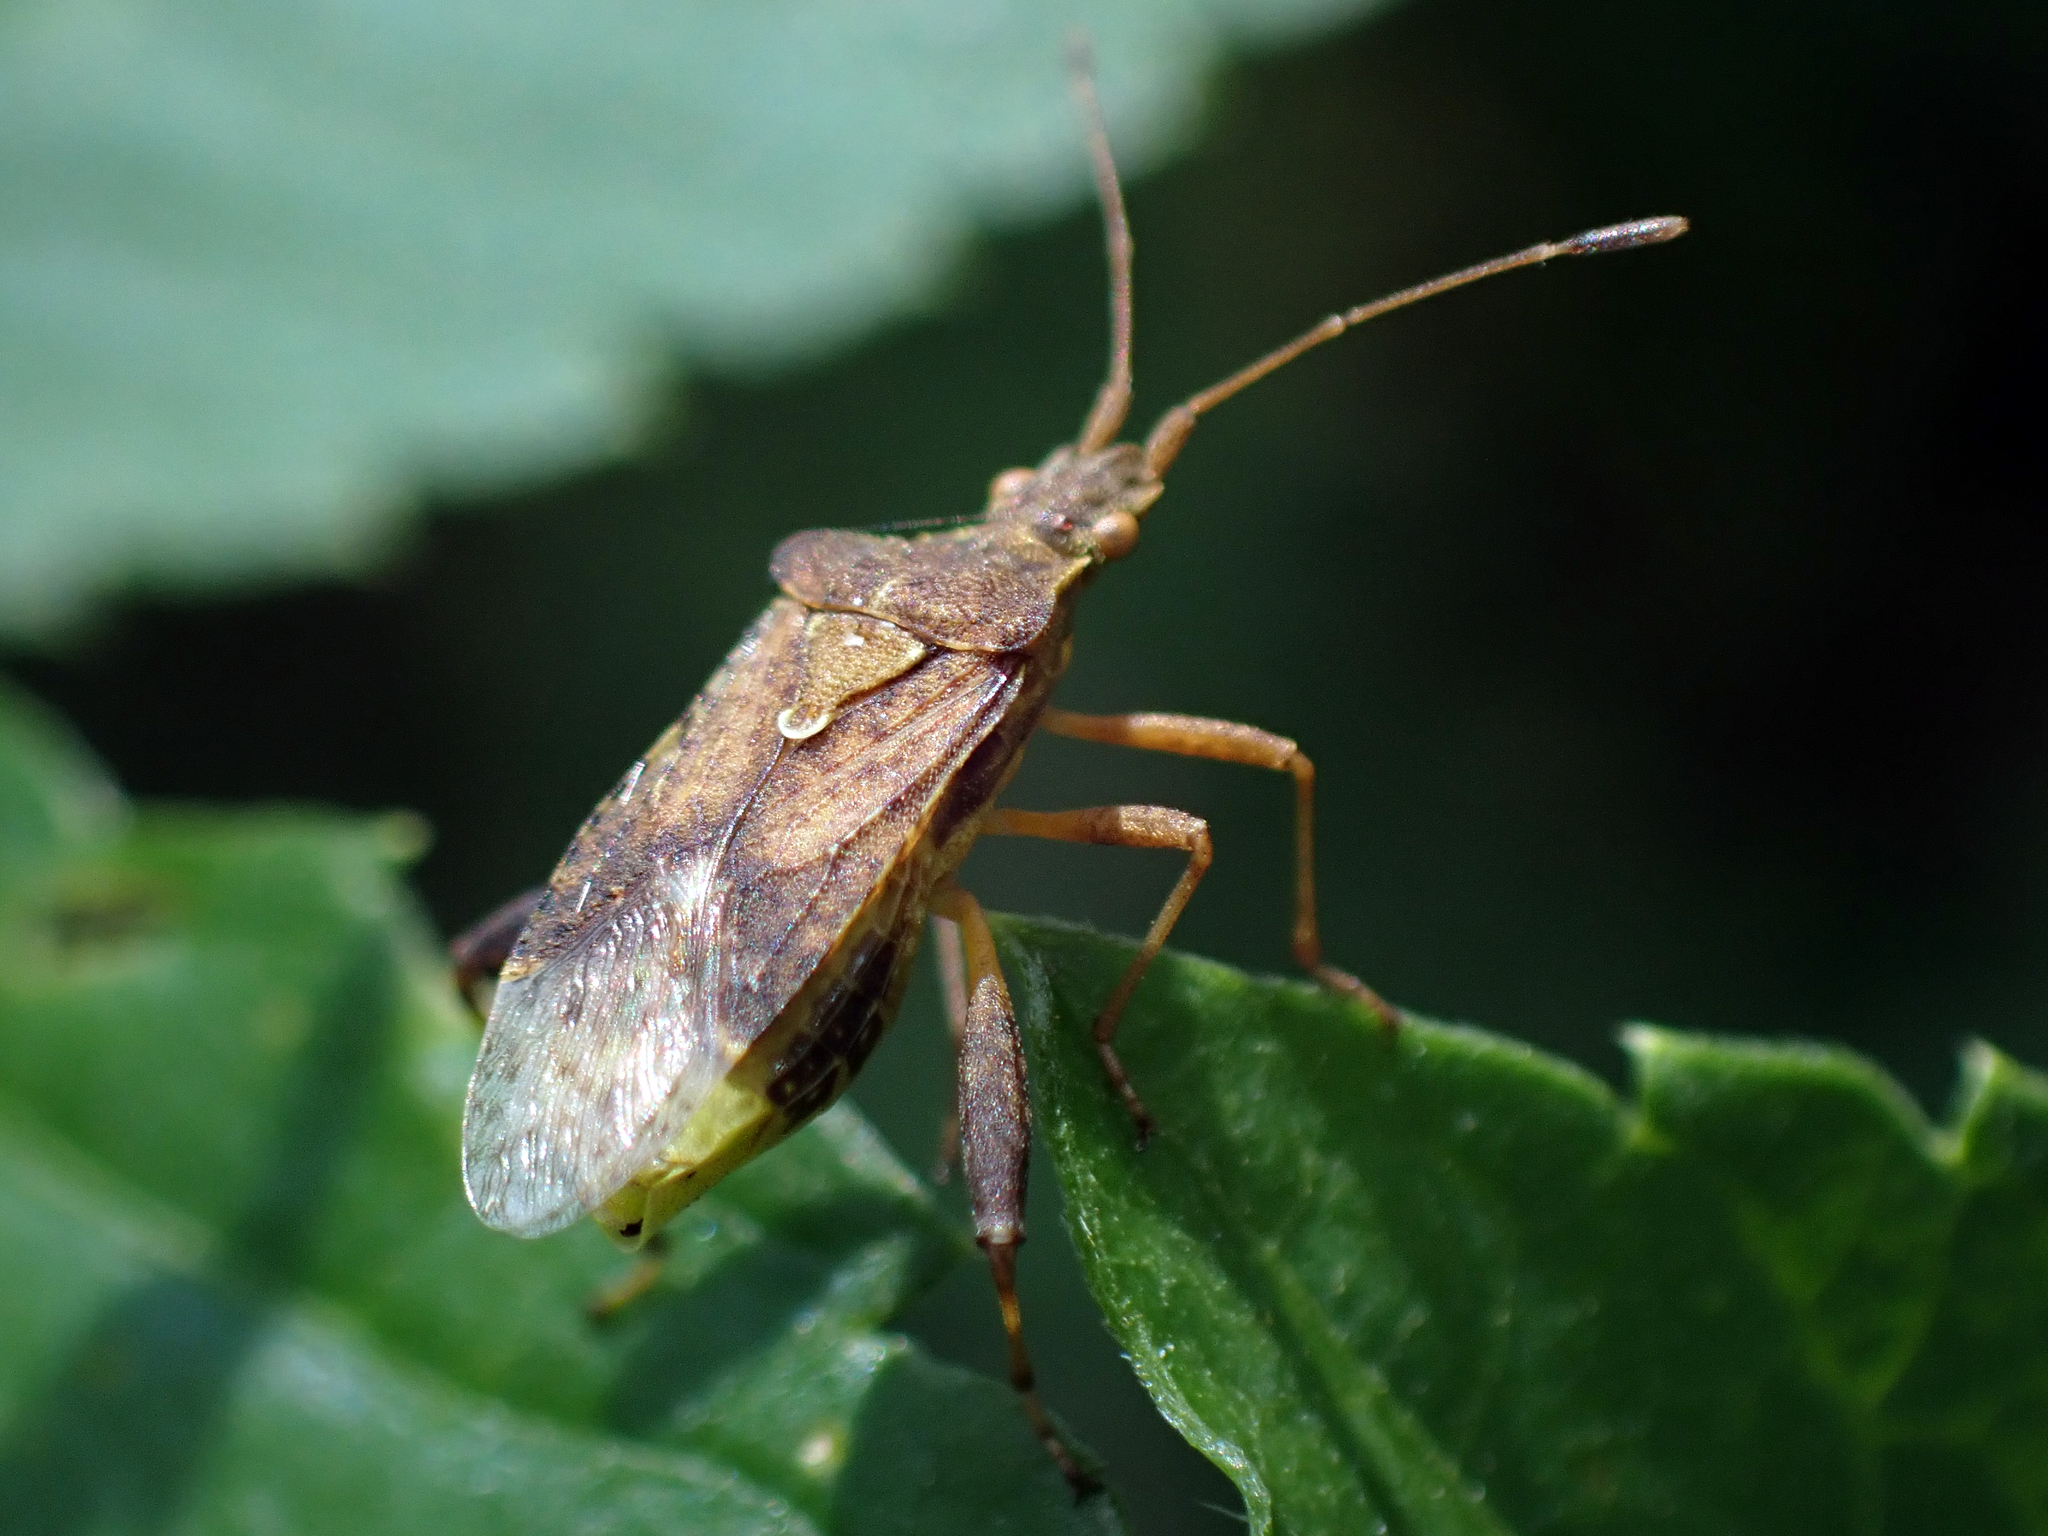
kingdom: Animalia
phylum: Arthropoda
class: Insecta
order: Hemiptera
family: Rhopalidae
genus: Harmostes
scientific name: Harmostes serratus
